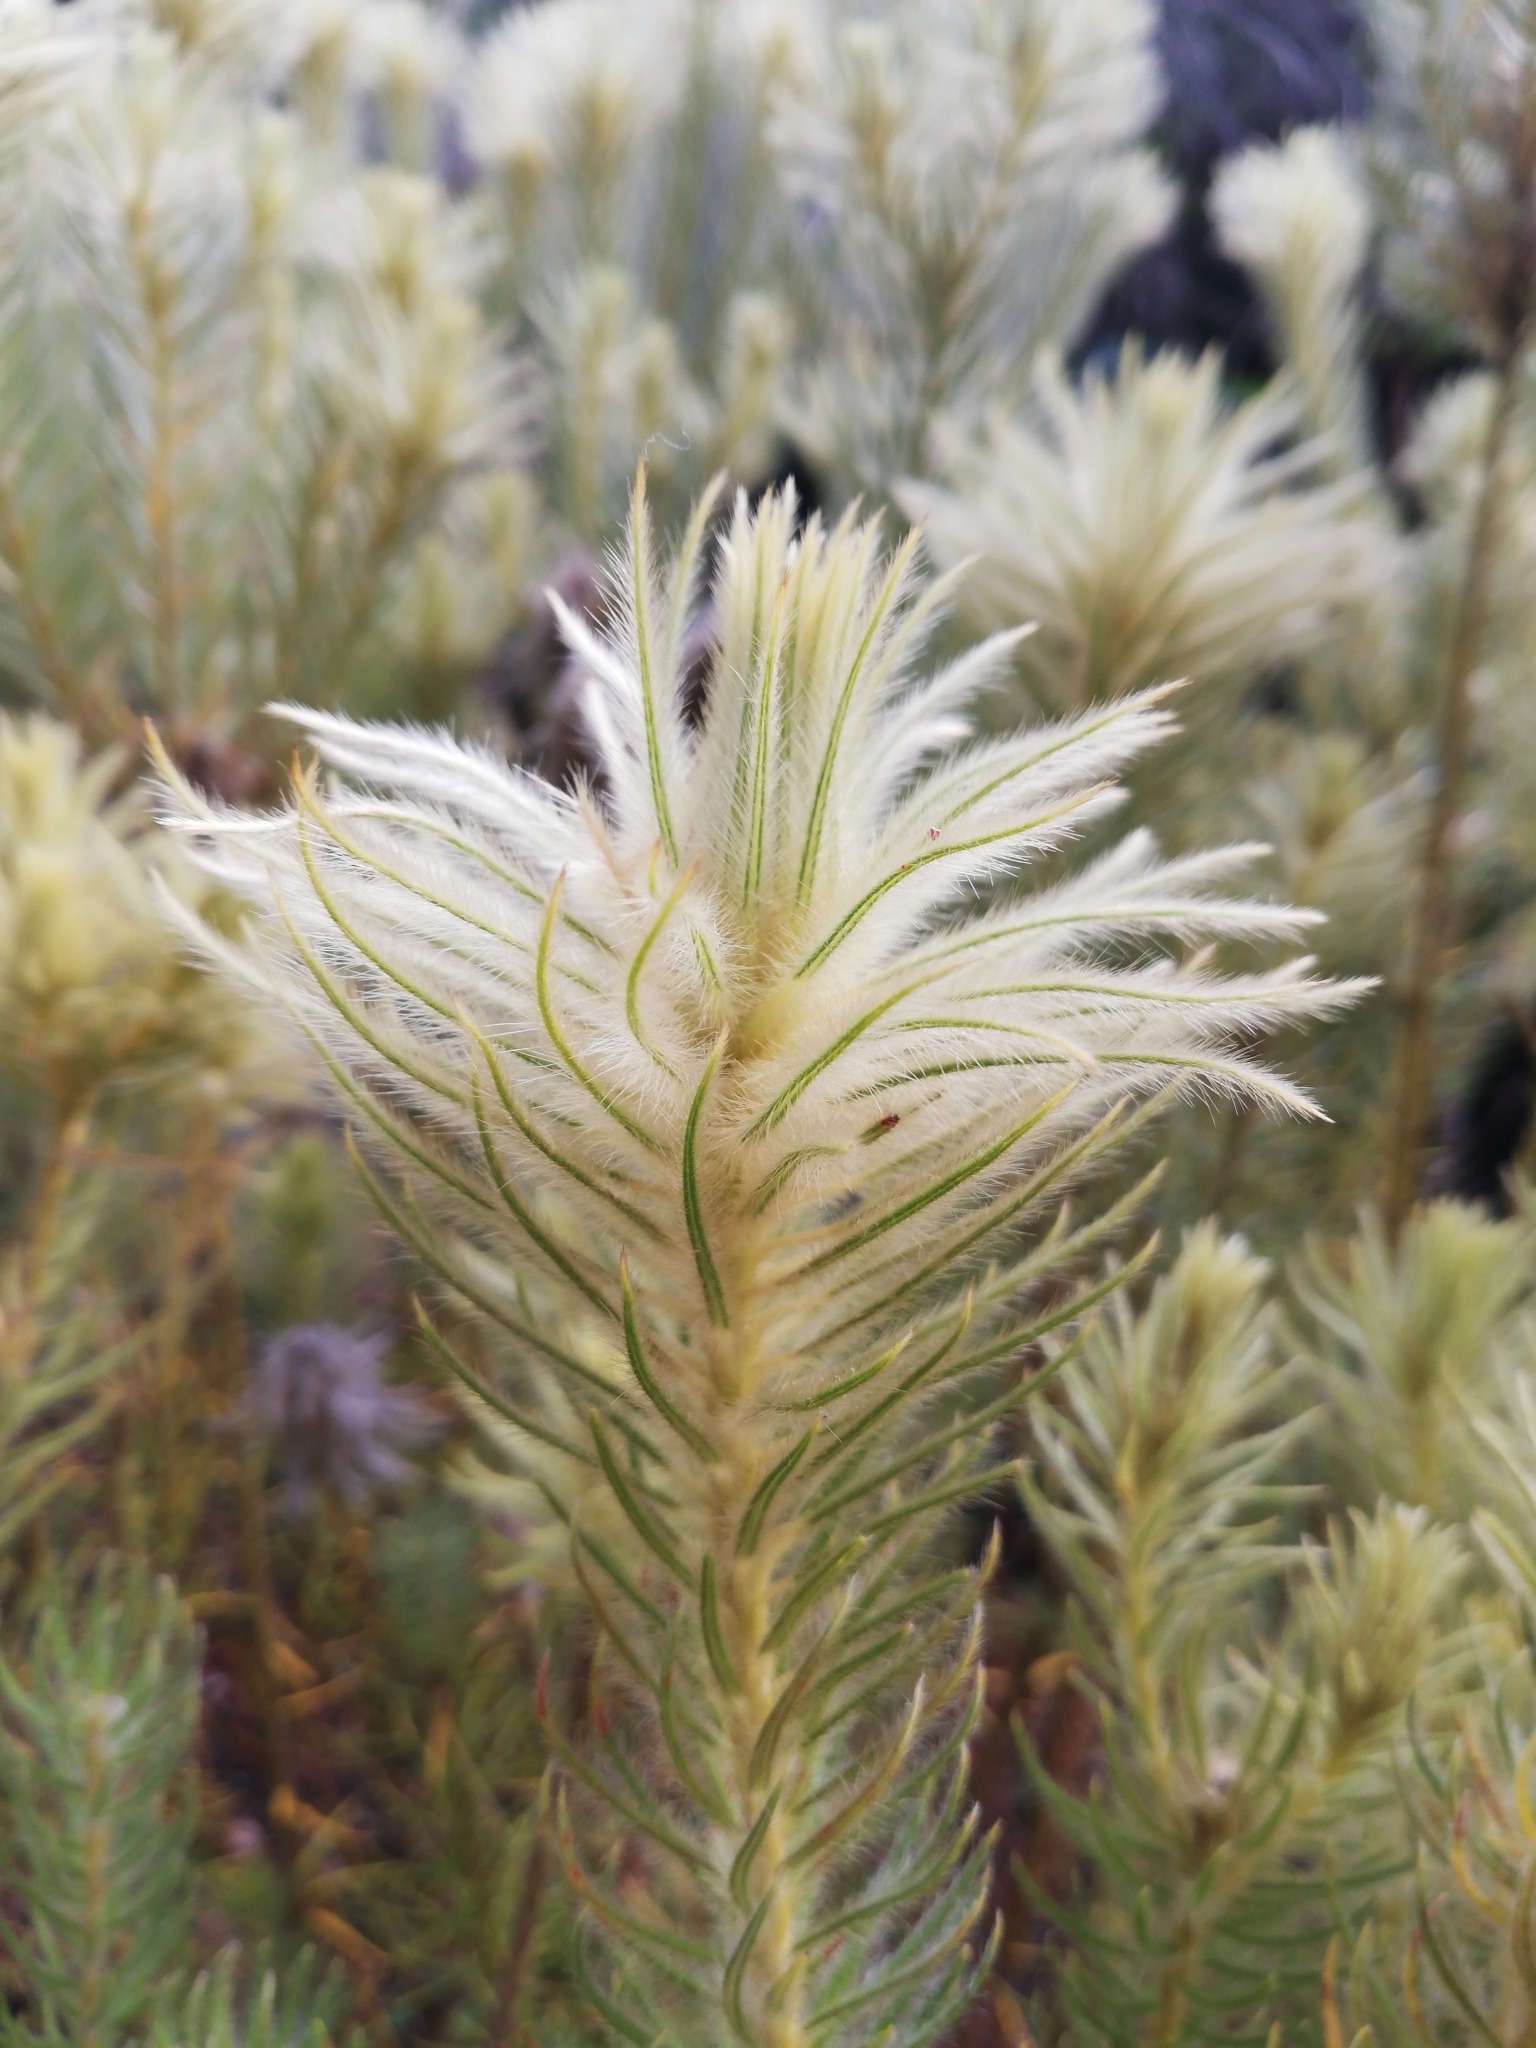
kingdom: Plantae
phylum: Tracheophyta
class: Magnoliopsida
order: Rosales
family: Rhamnaceae
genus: Phylica
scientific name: Phylica pubescens
